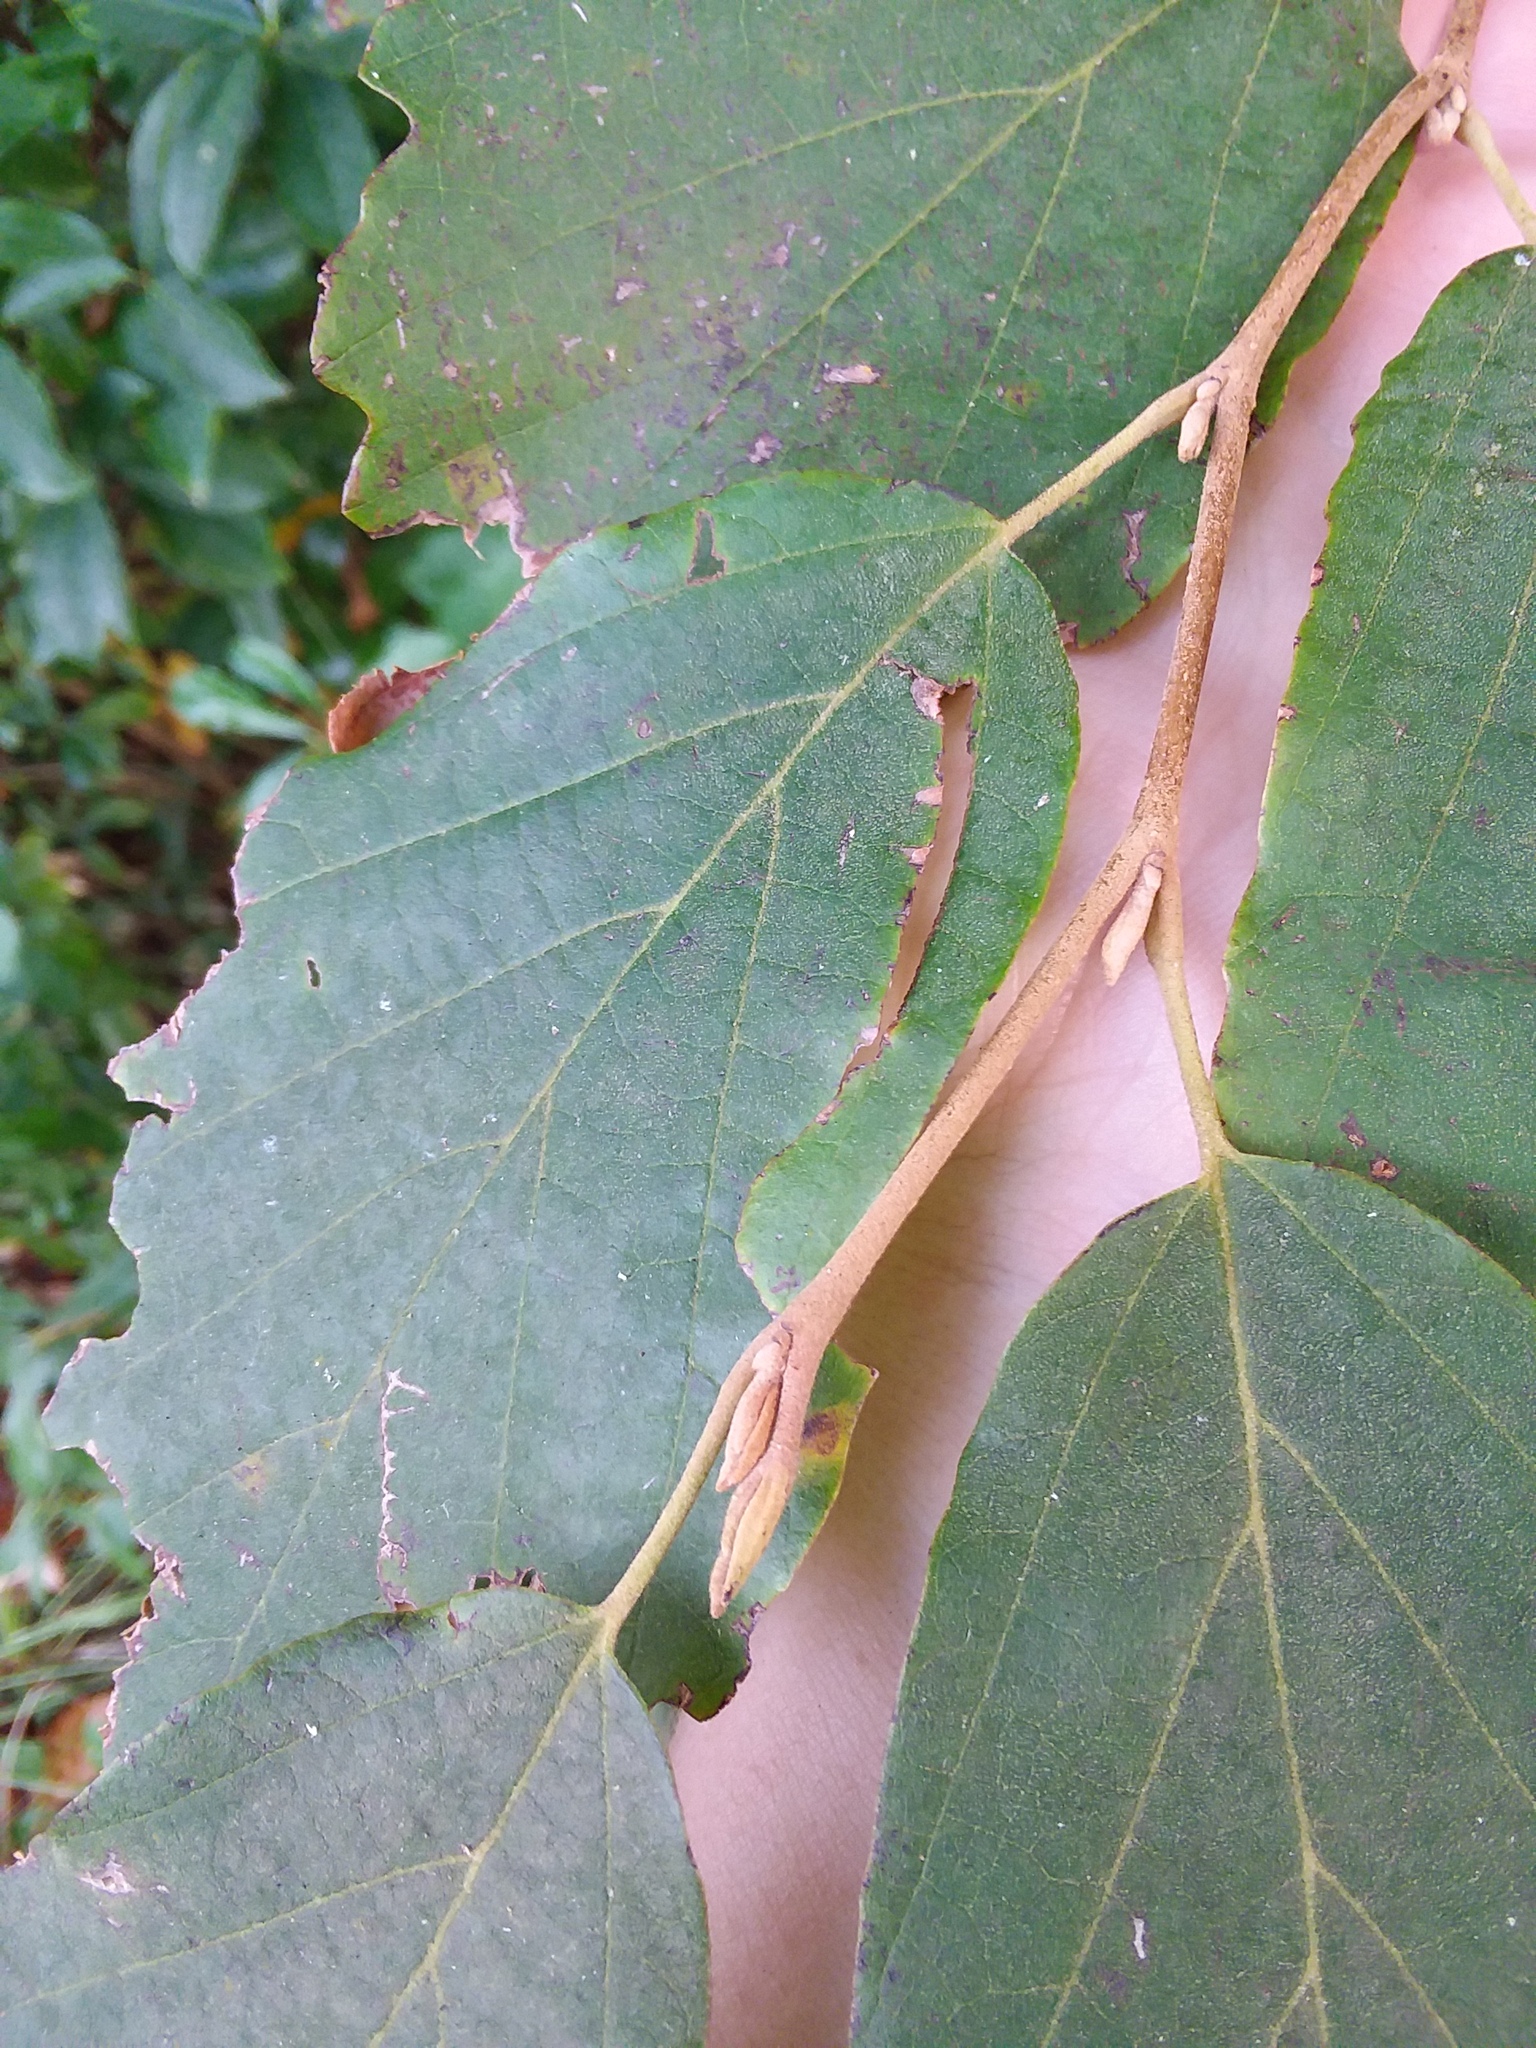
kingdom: Plantae
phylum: Tracheophyta
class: Magnoliopsida
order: Saxifragales
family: Hamamelidaceae
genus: Hamamelis
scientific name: Hamamelis virginiana
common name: Witch-hazel
